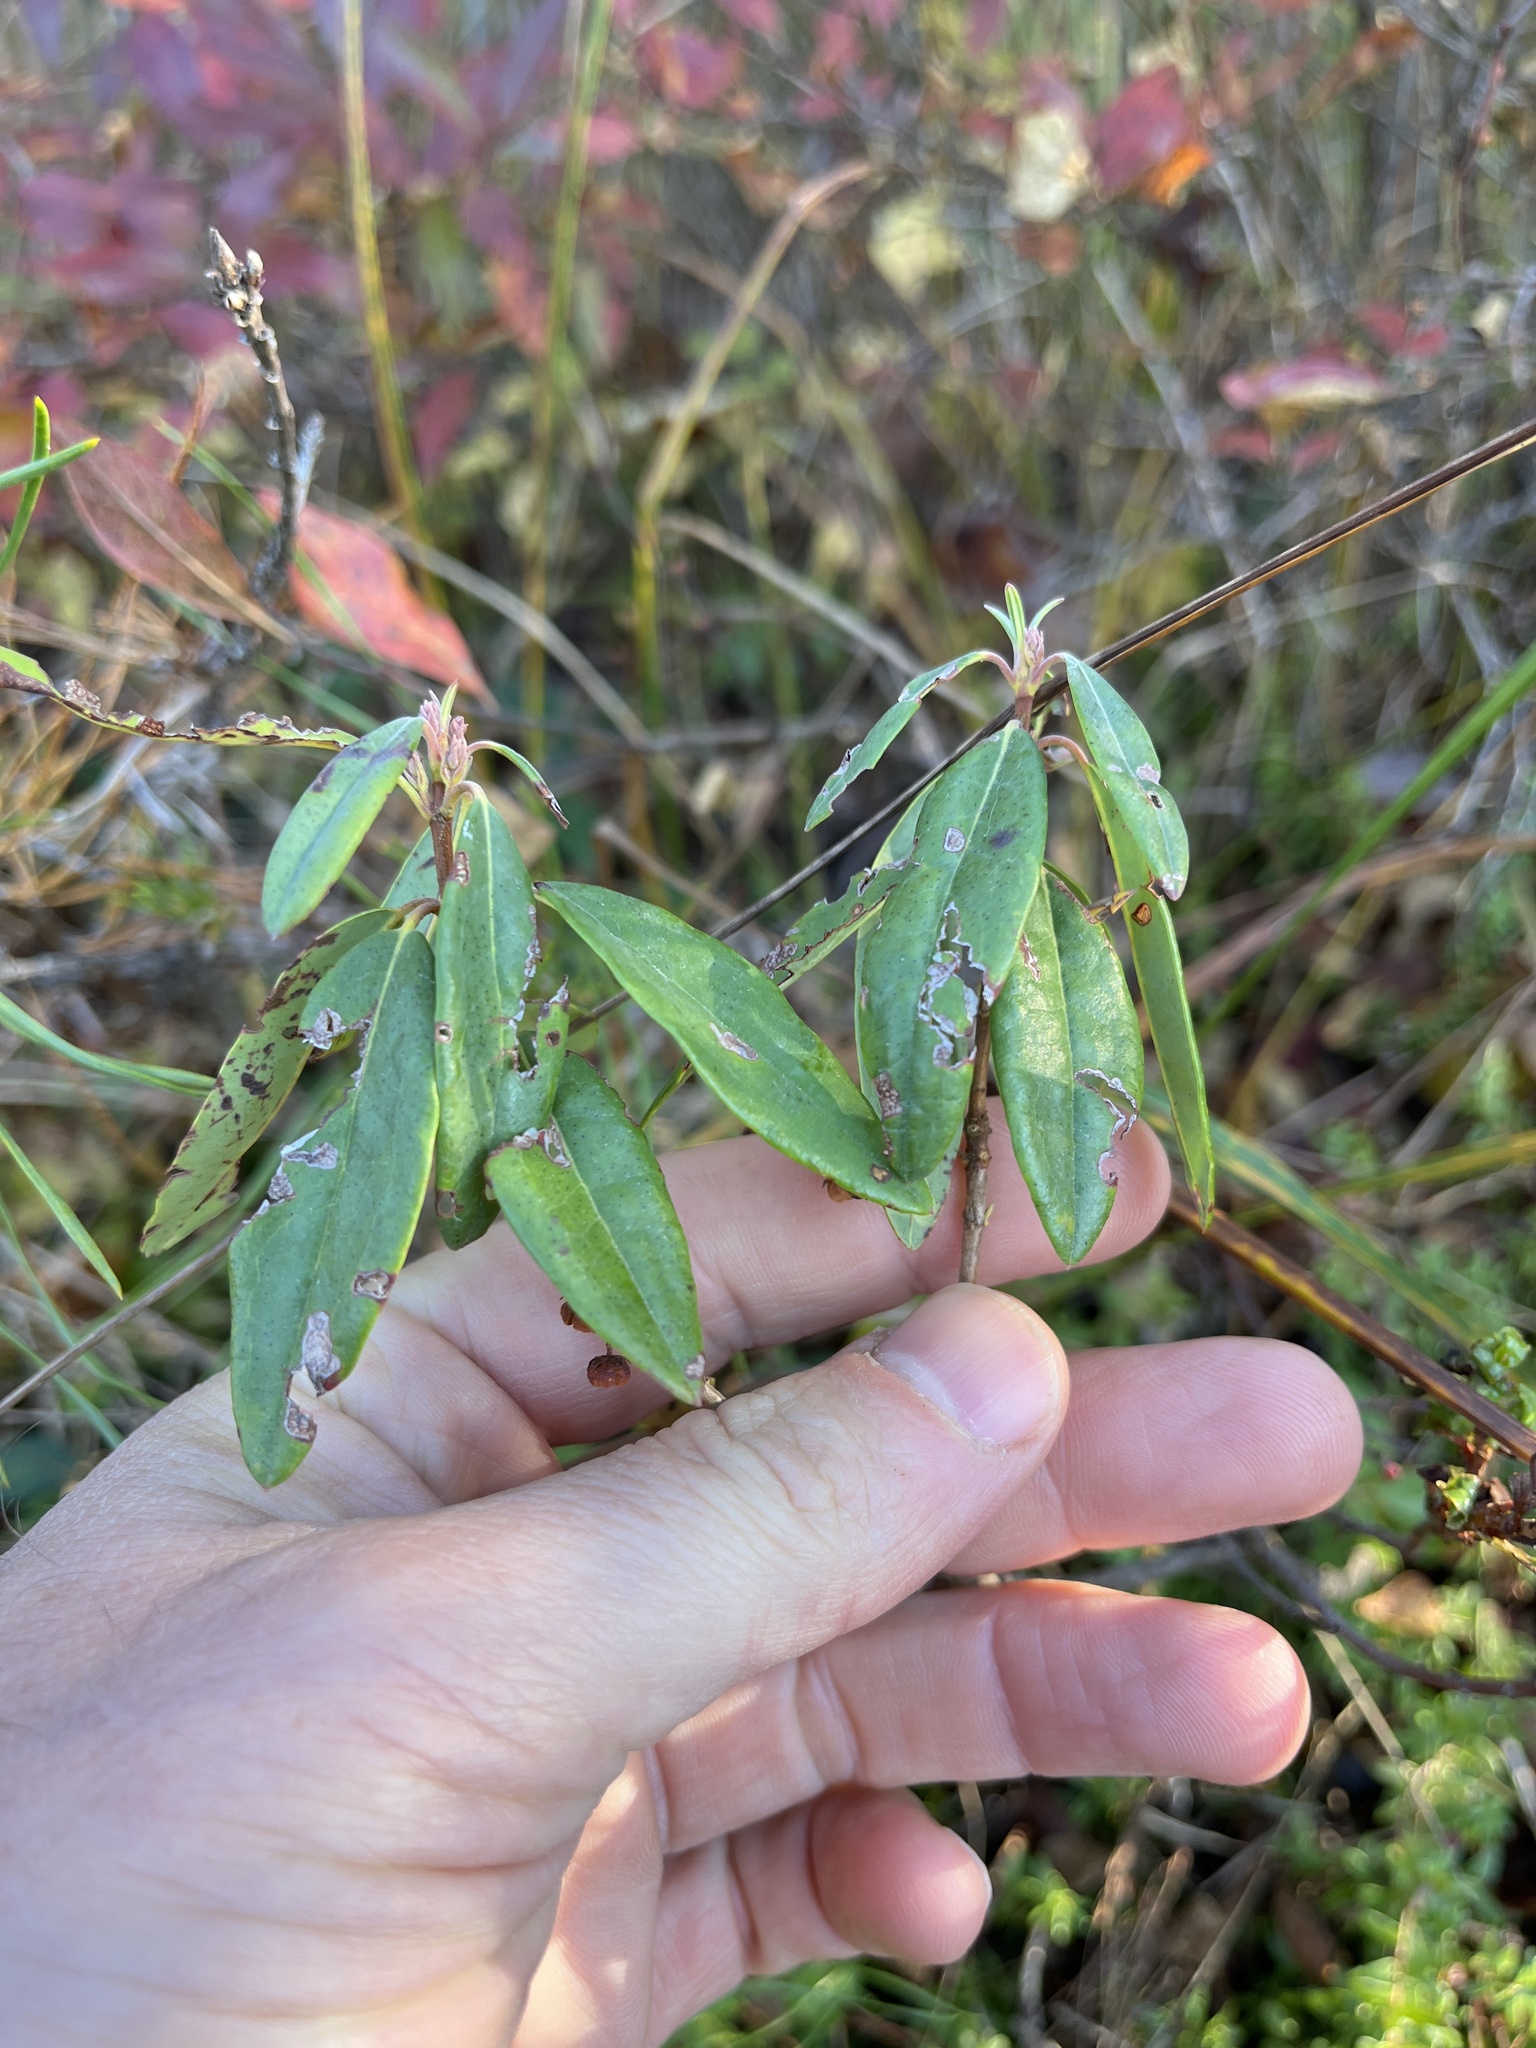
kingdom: Plantae
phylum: Tracheophyta
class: Magnoliopsida
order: Ericales
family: Ericaceae
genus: Kalmia
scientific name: Kalmia angustifolia
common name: Sheep-laurel
